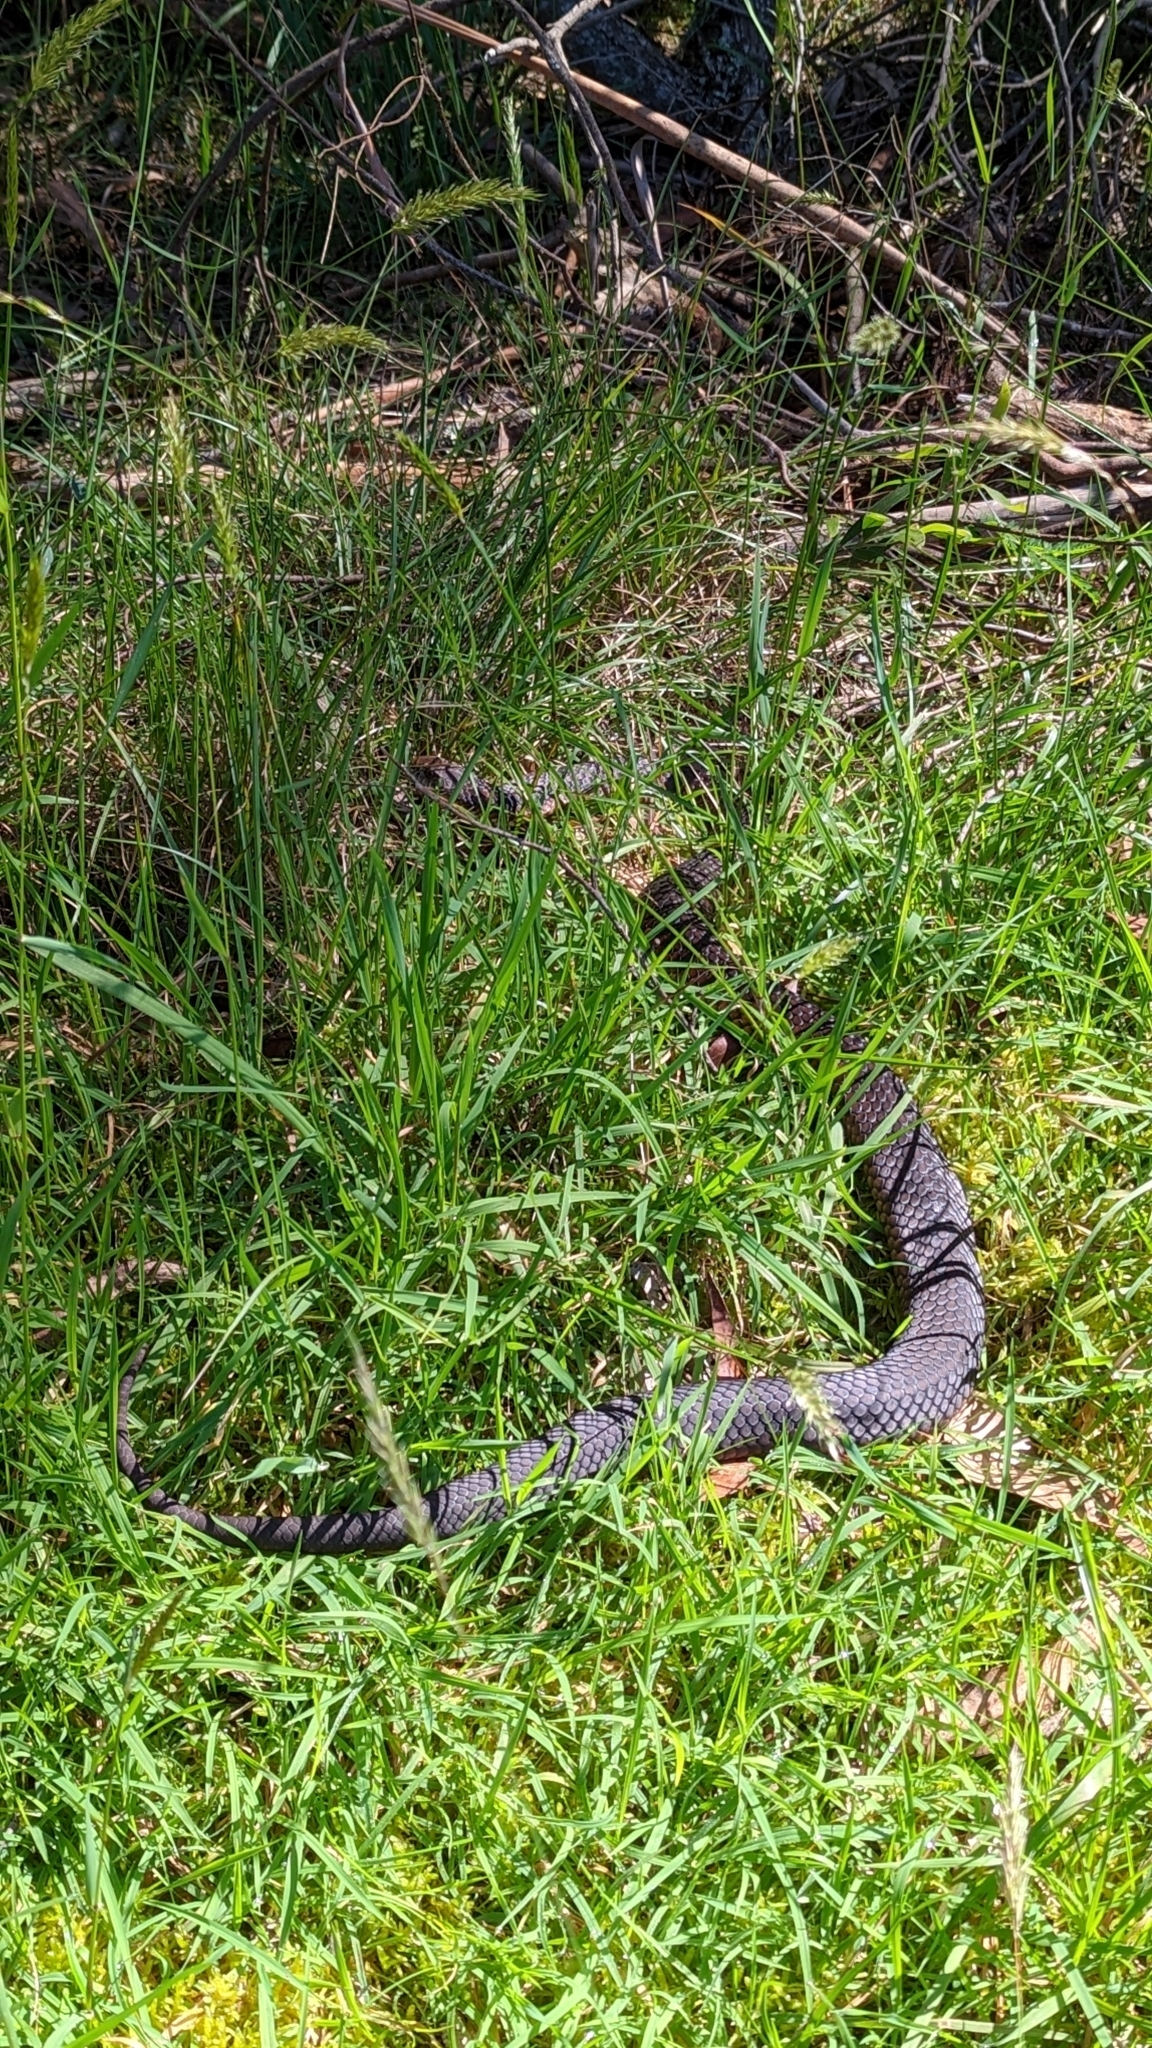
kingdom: Animalia
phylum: Chordata
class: Squamata
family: Elapidae
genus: Austrelaps
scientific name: Austrelaps superbus
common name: Copperhead snake
